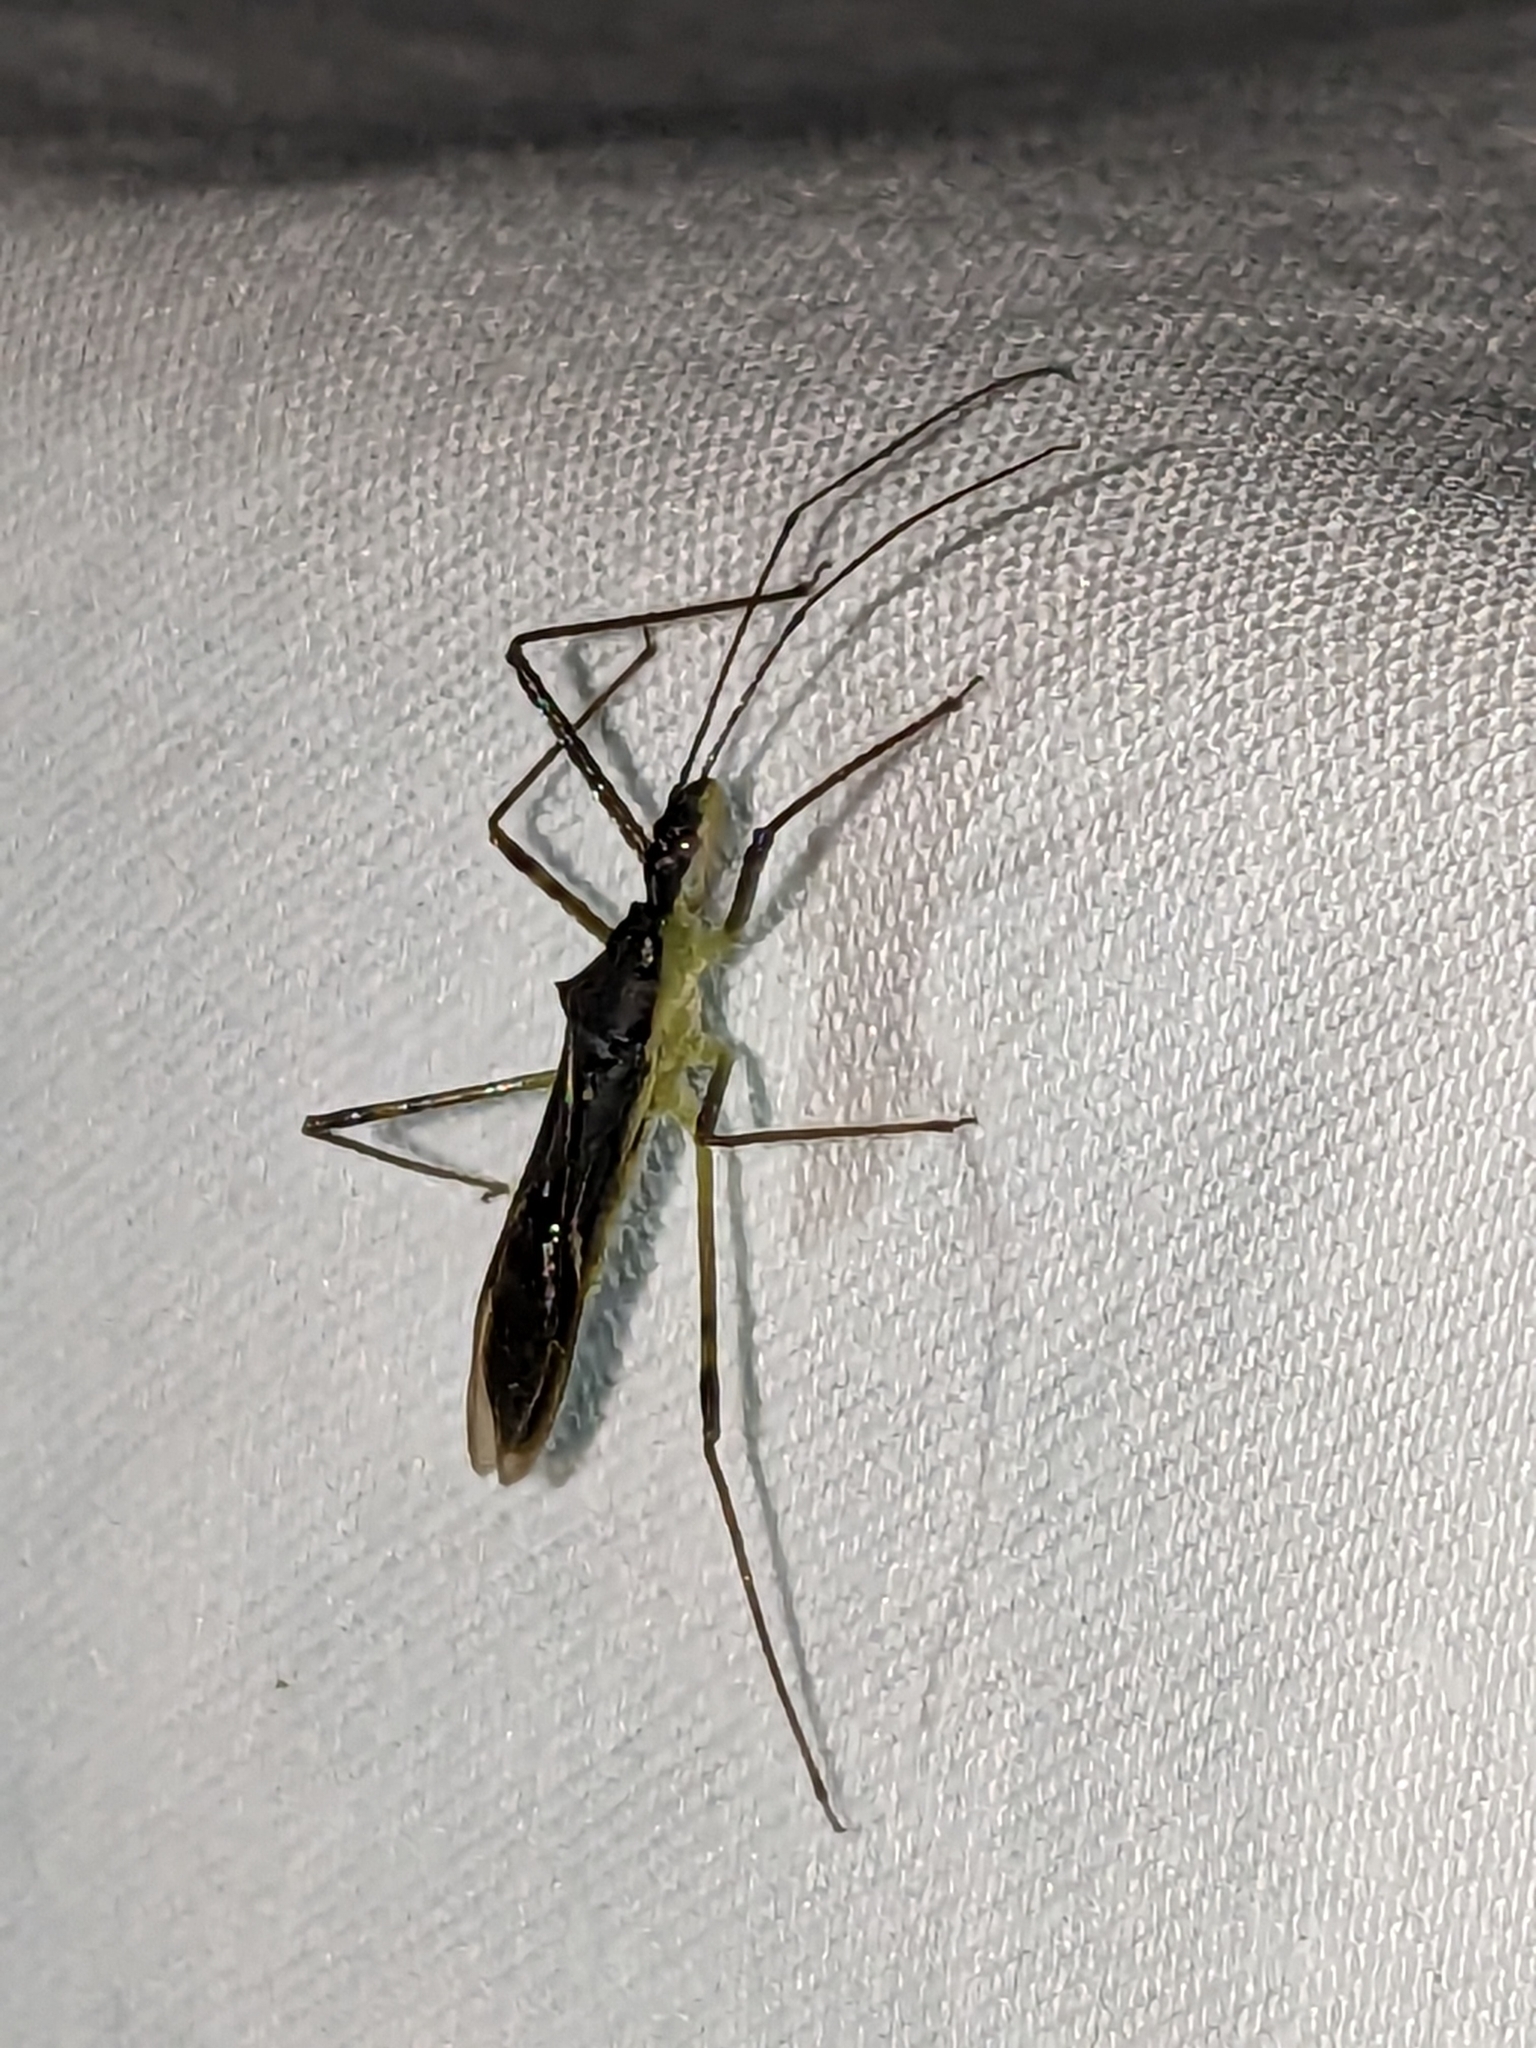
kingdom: Animalia
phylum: Arthropoda
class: Insecta
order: Hemiptera
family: Reduviidae
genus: Zelus
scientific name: Zelus luridus
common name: Pale green assassin bug
